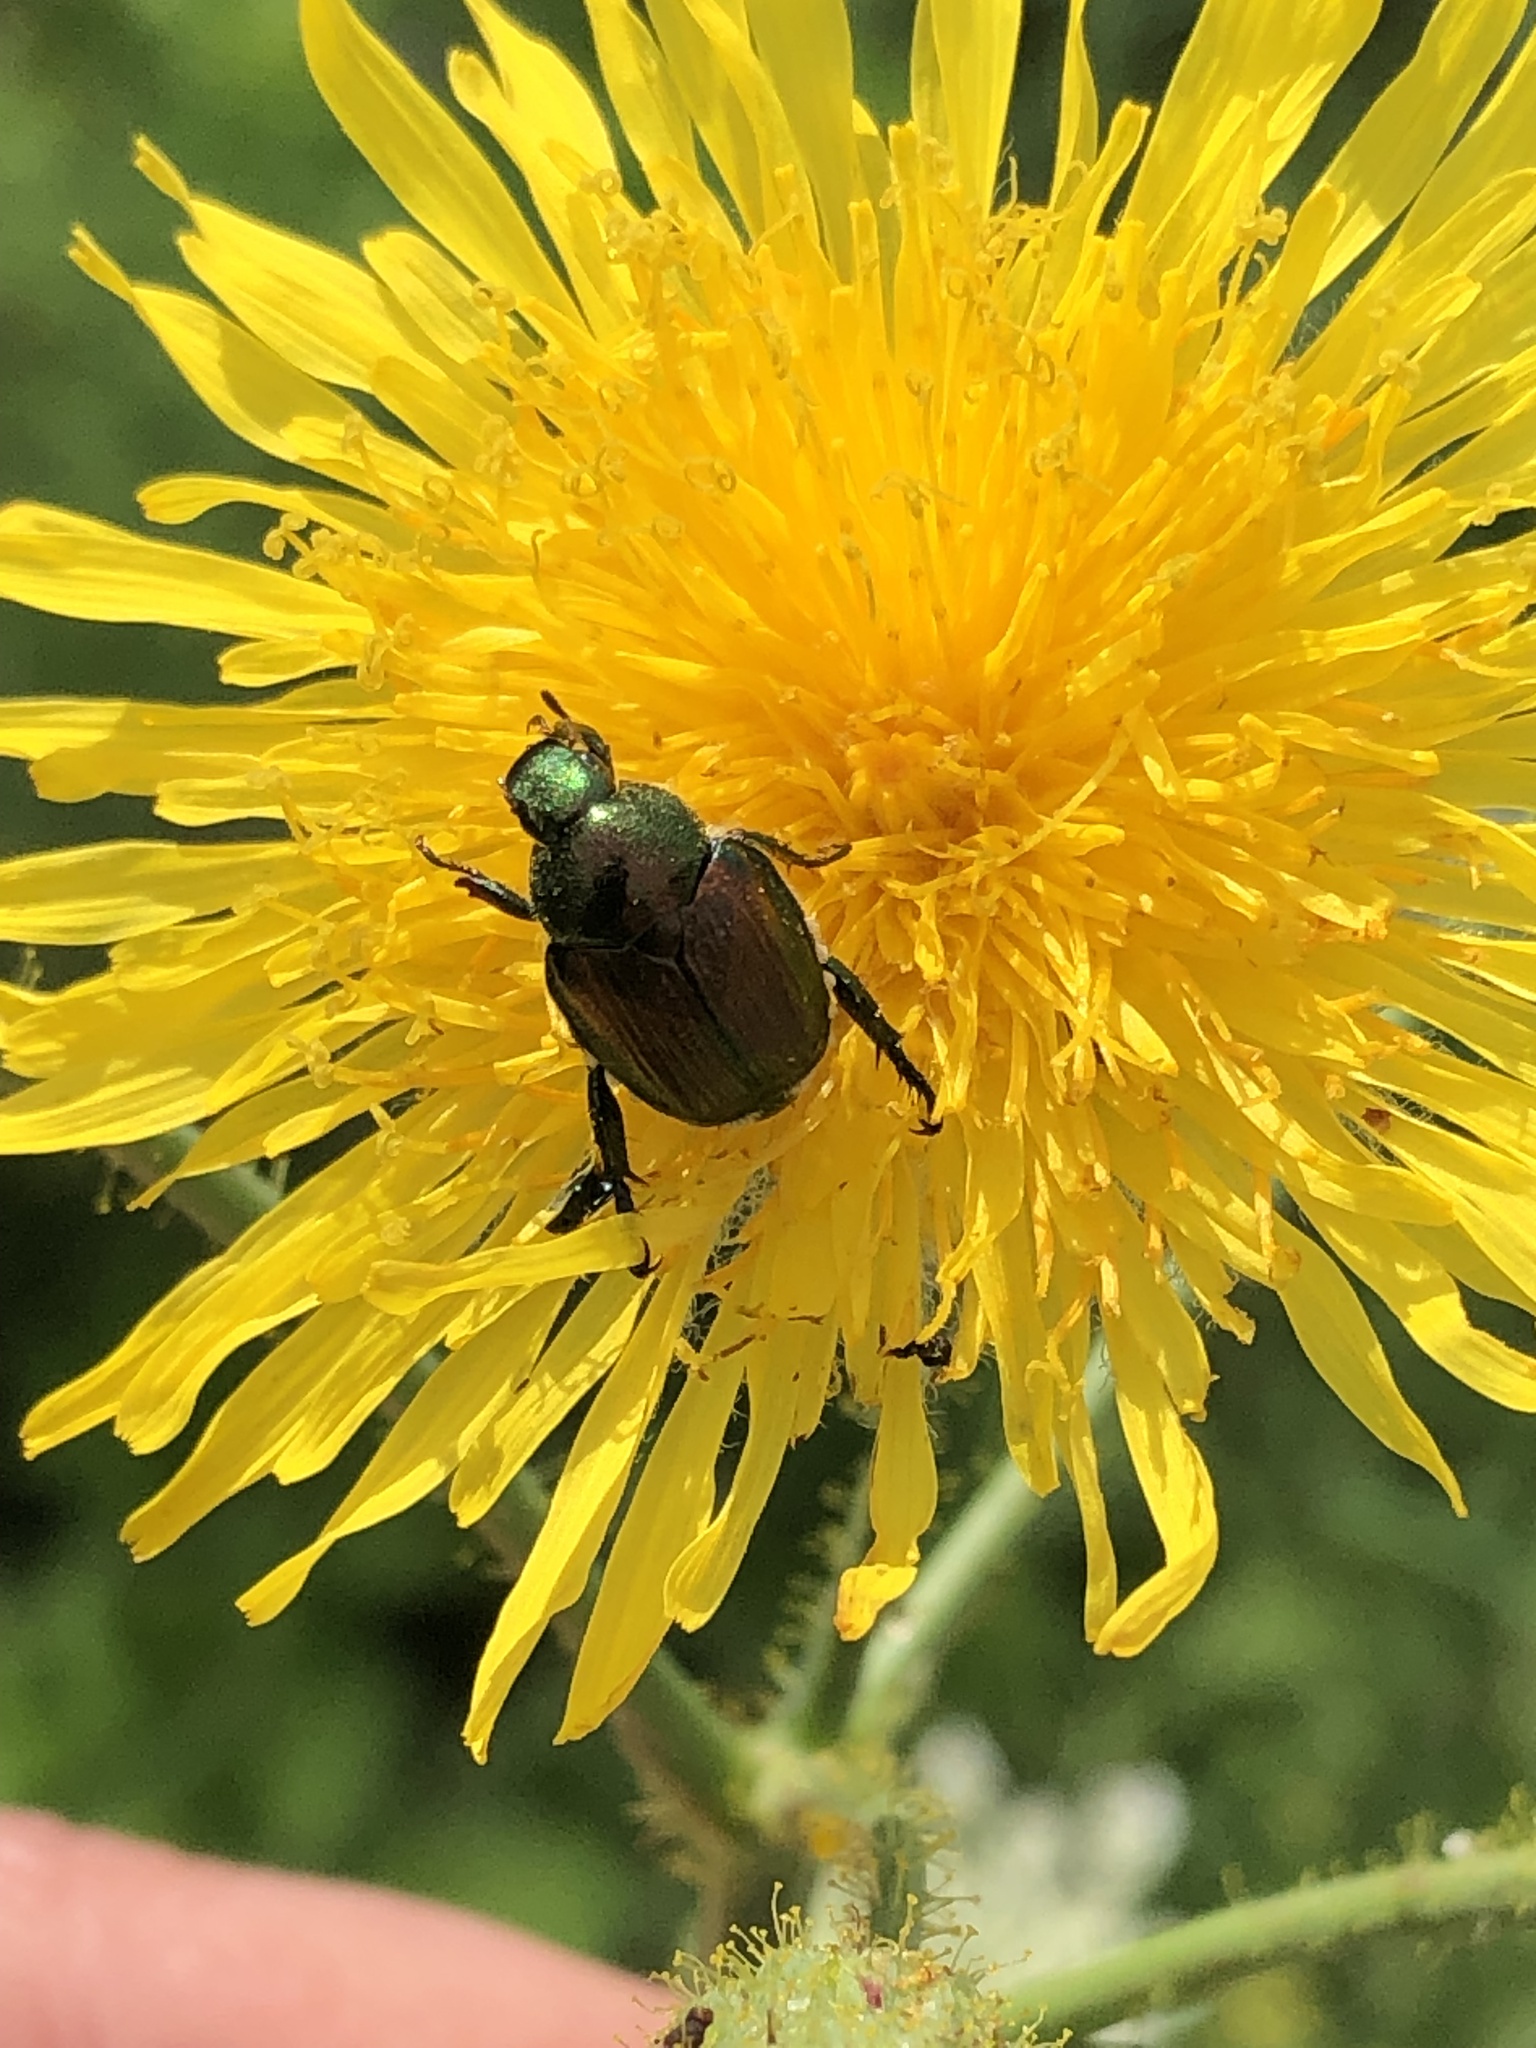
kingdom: Animalia
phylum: Arthropoda
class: Insecta
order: Coleoptera
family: Scarabaeidae
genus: Popillia
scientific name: Popillia japonica
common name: Japanese beetle
